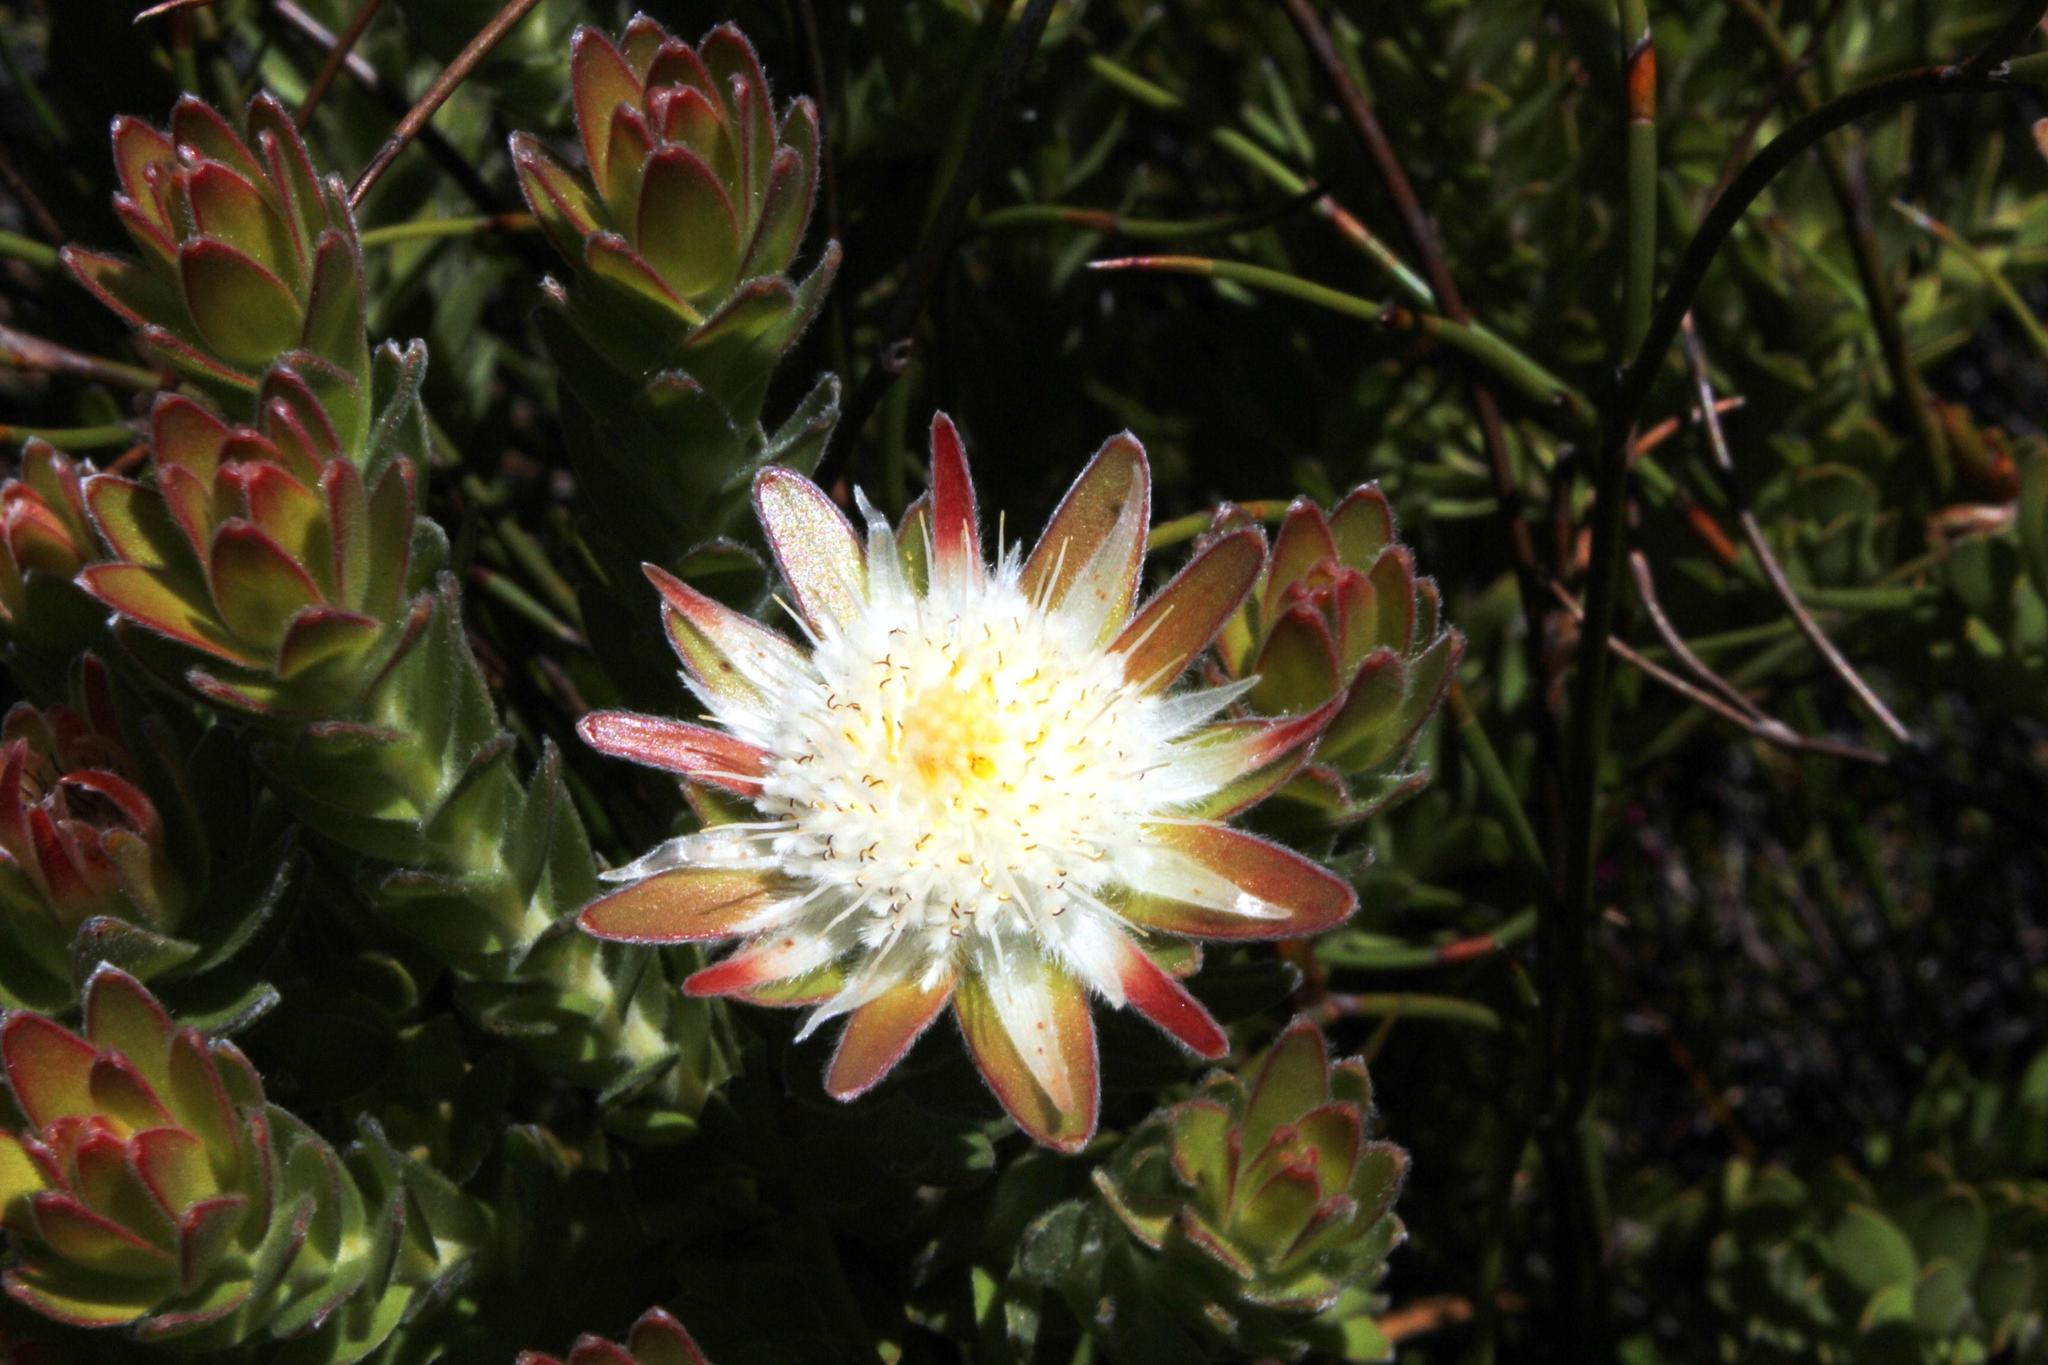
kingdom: Plantae
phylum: Tracheophyta
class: Magnoliopsida
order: Proteales
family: Proteaceae
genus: Diastella
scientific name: Diastella thymelaeoides
